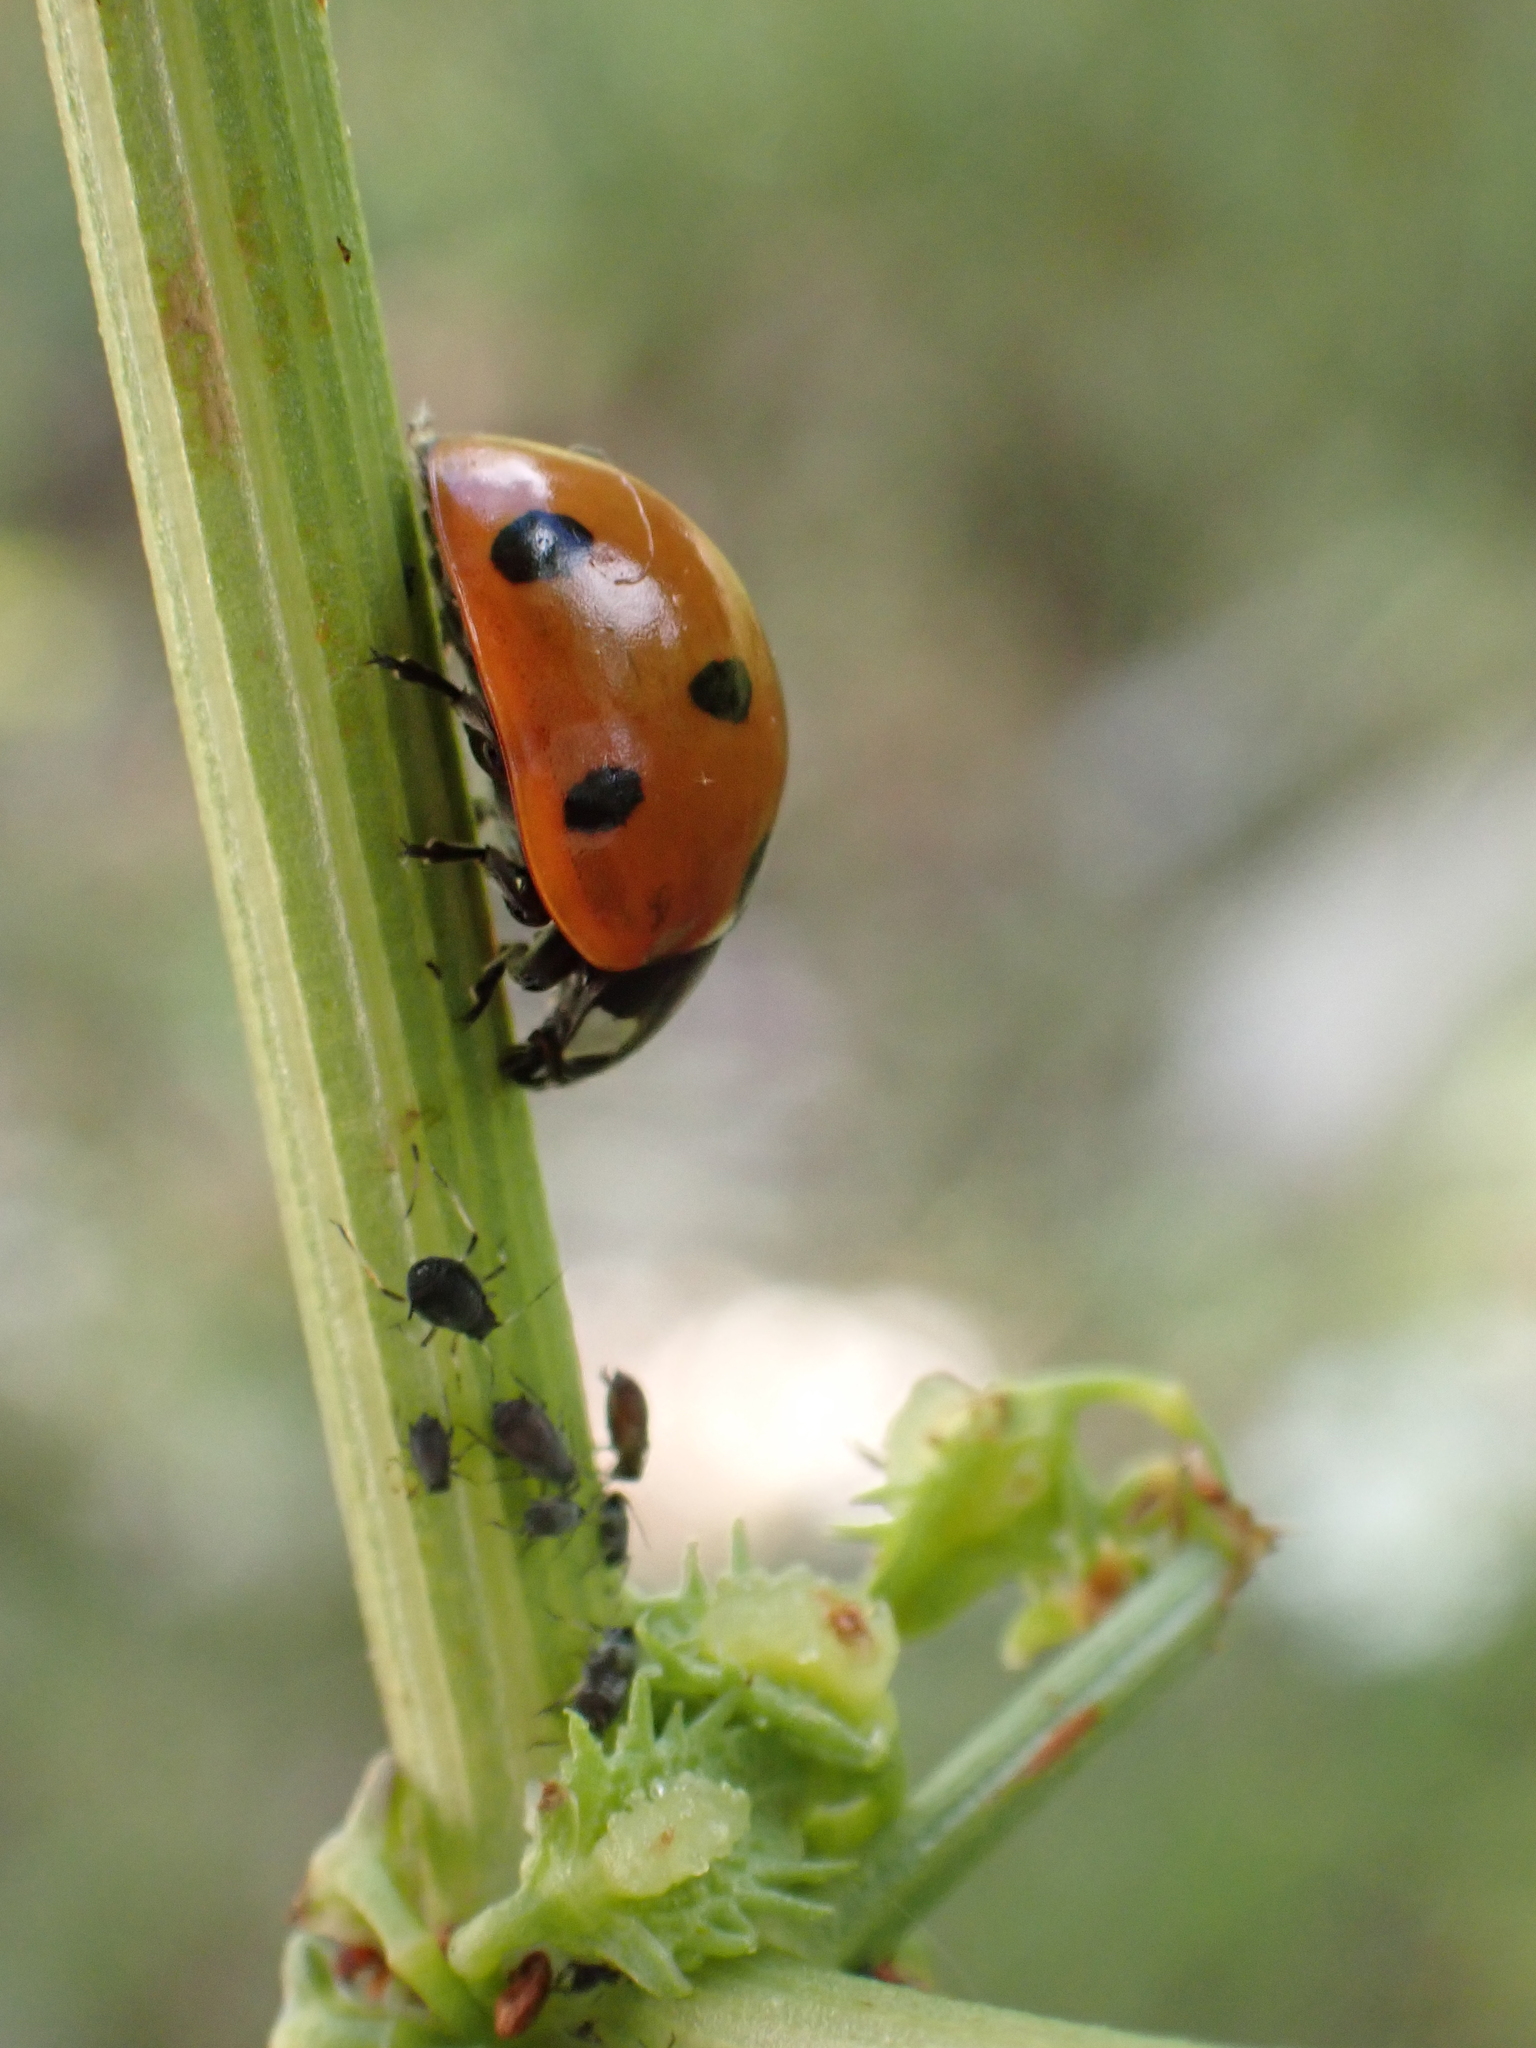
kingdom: Animalia
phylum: Arthropoda
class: Insecta
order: Coleoptera
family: Coccinellidae
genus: Coccinella
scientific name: Coccinella septempunctata
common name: Sevenspotted lady beetle
